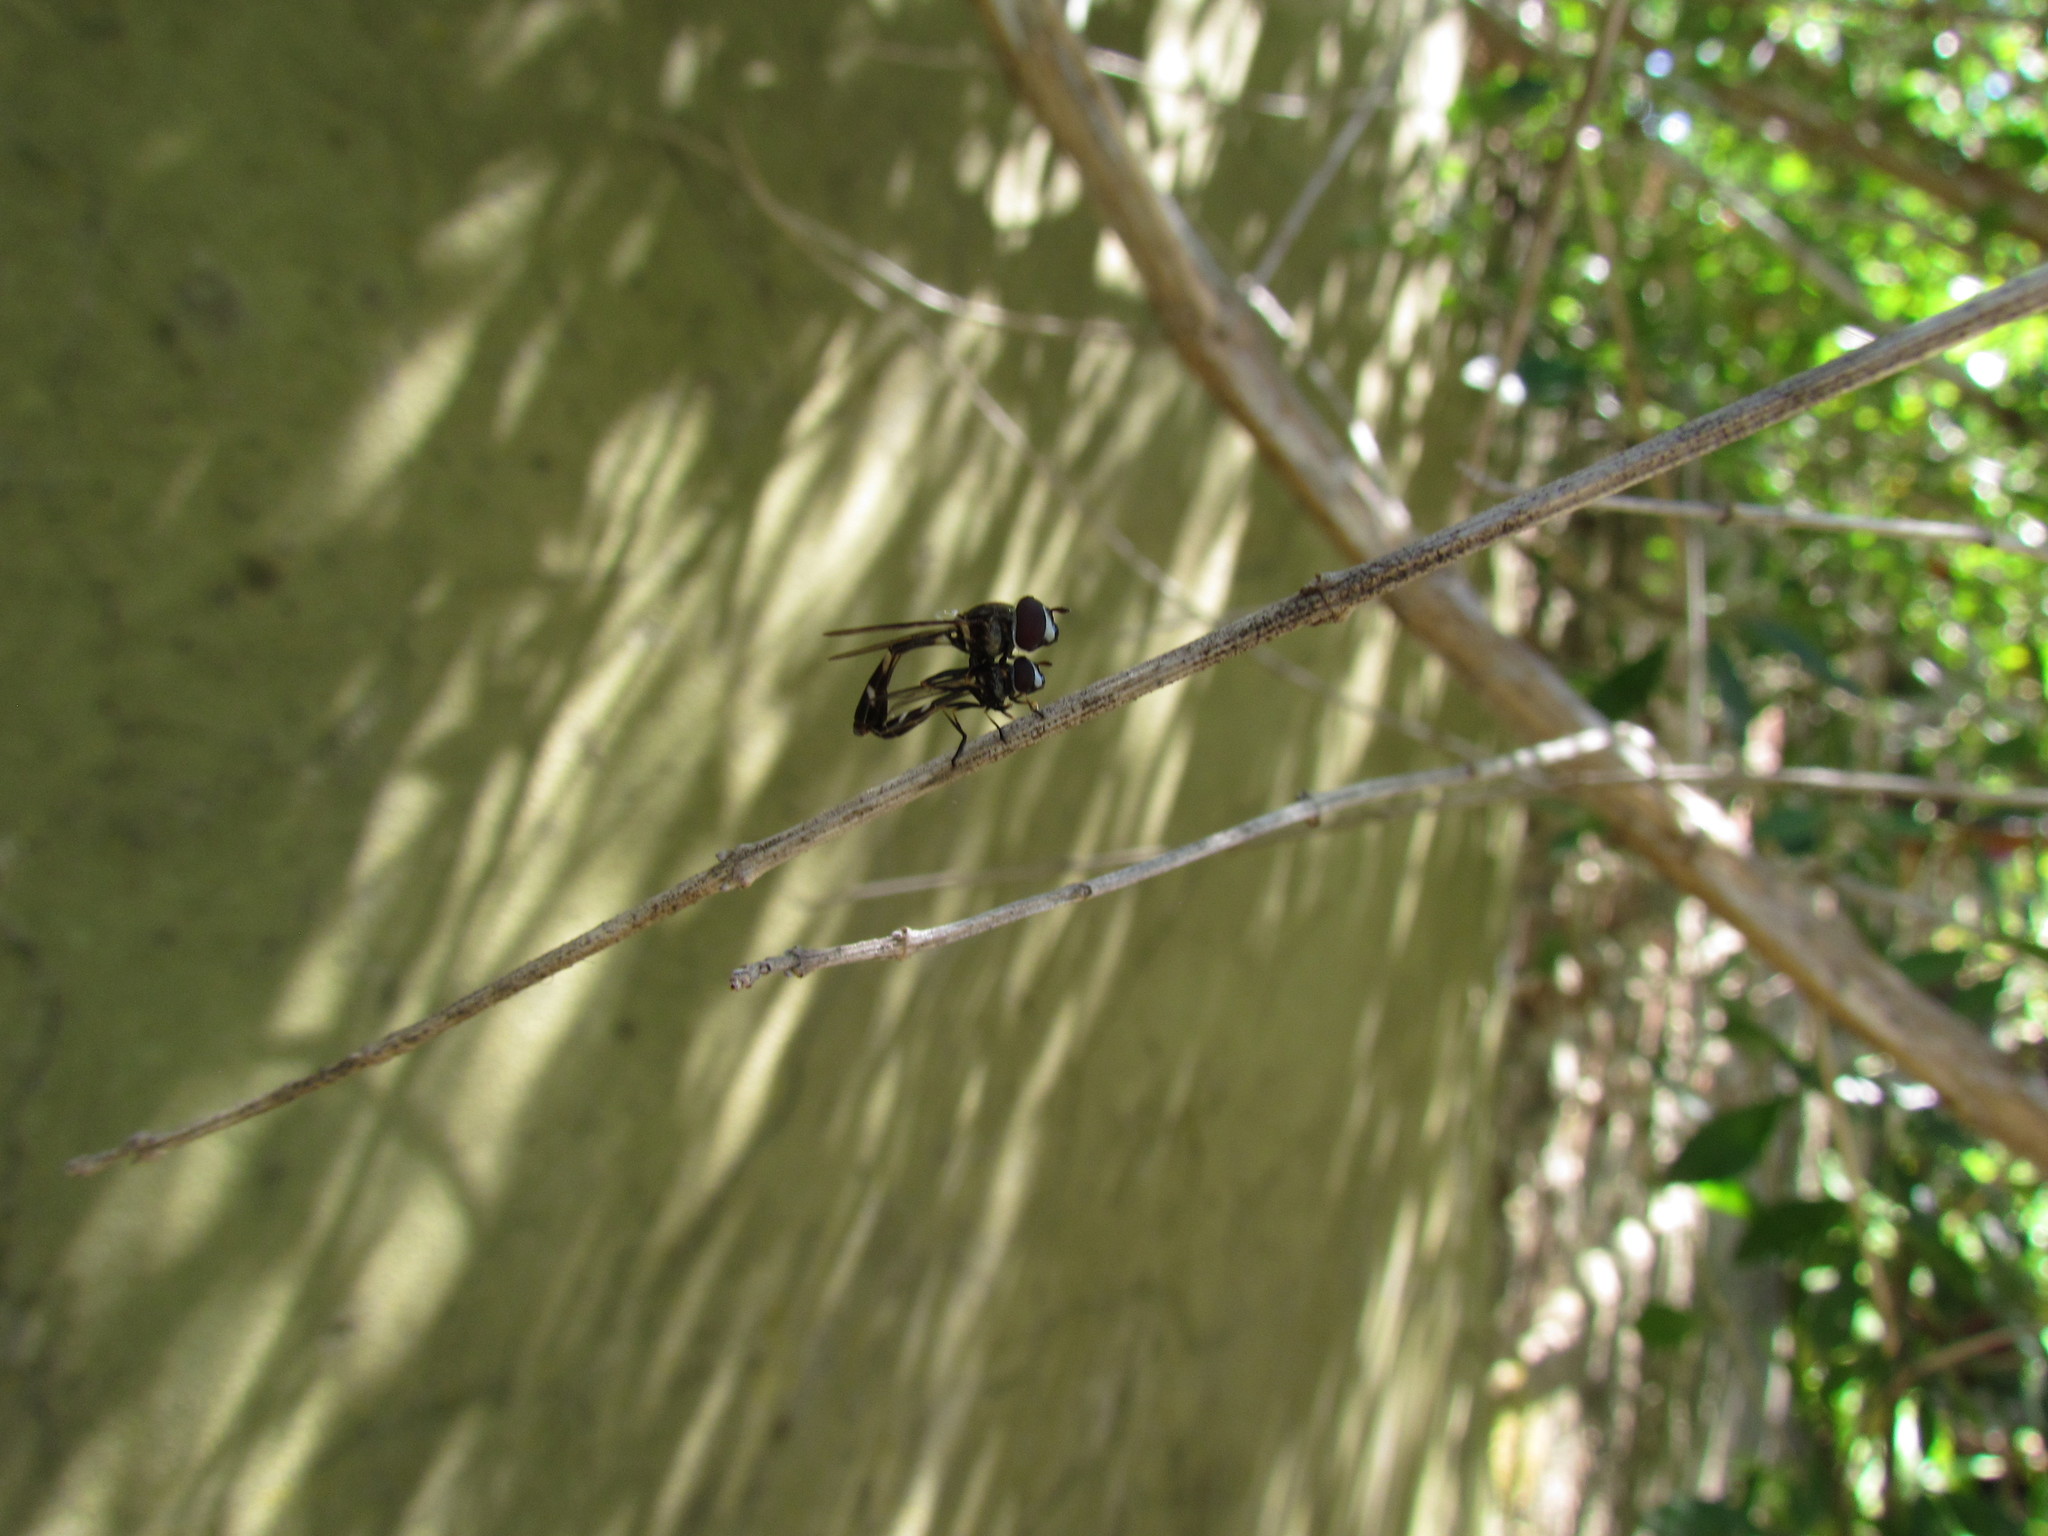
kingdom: Animalia
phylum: Arthropoda
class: Insecta
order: Diptera
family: Syrphidae
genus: Dioprosopa
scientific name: Dioprosopa clavatus
